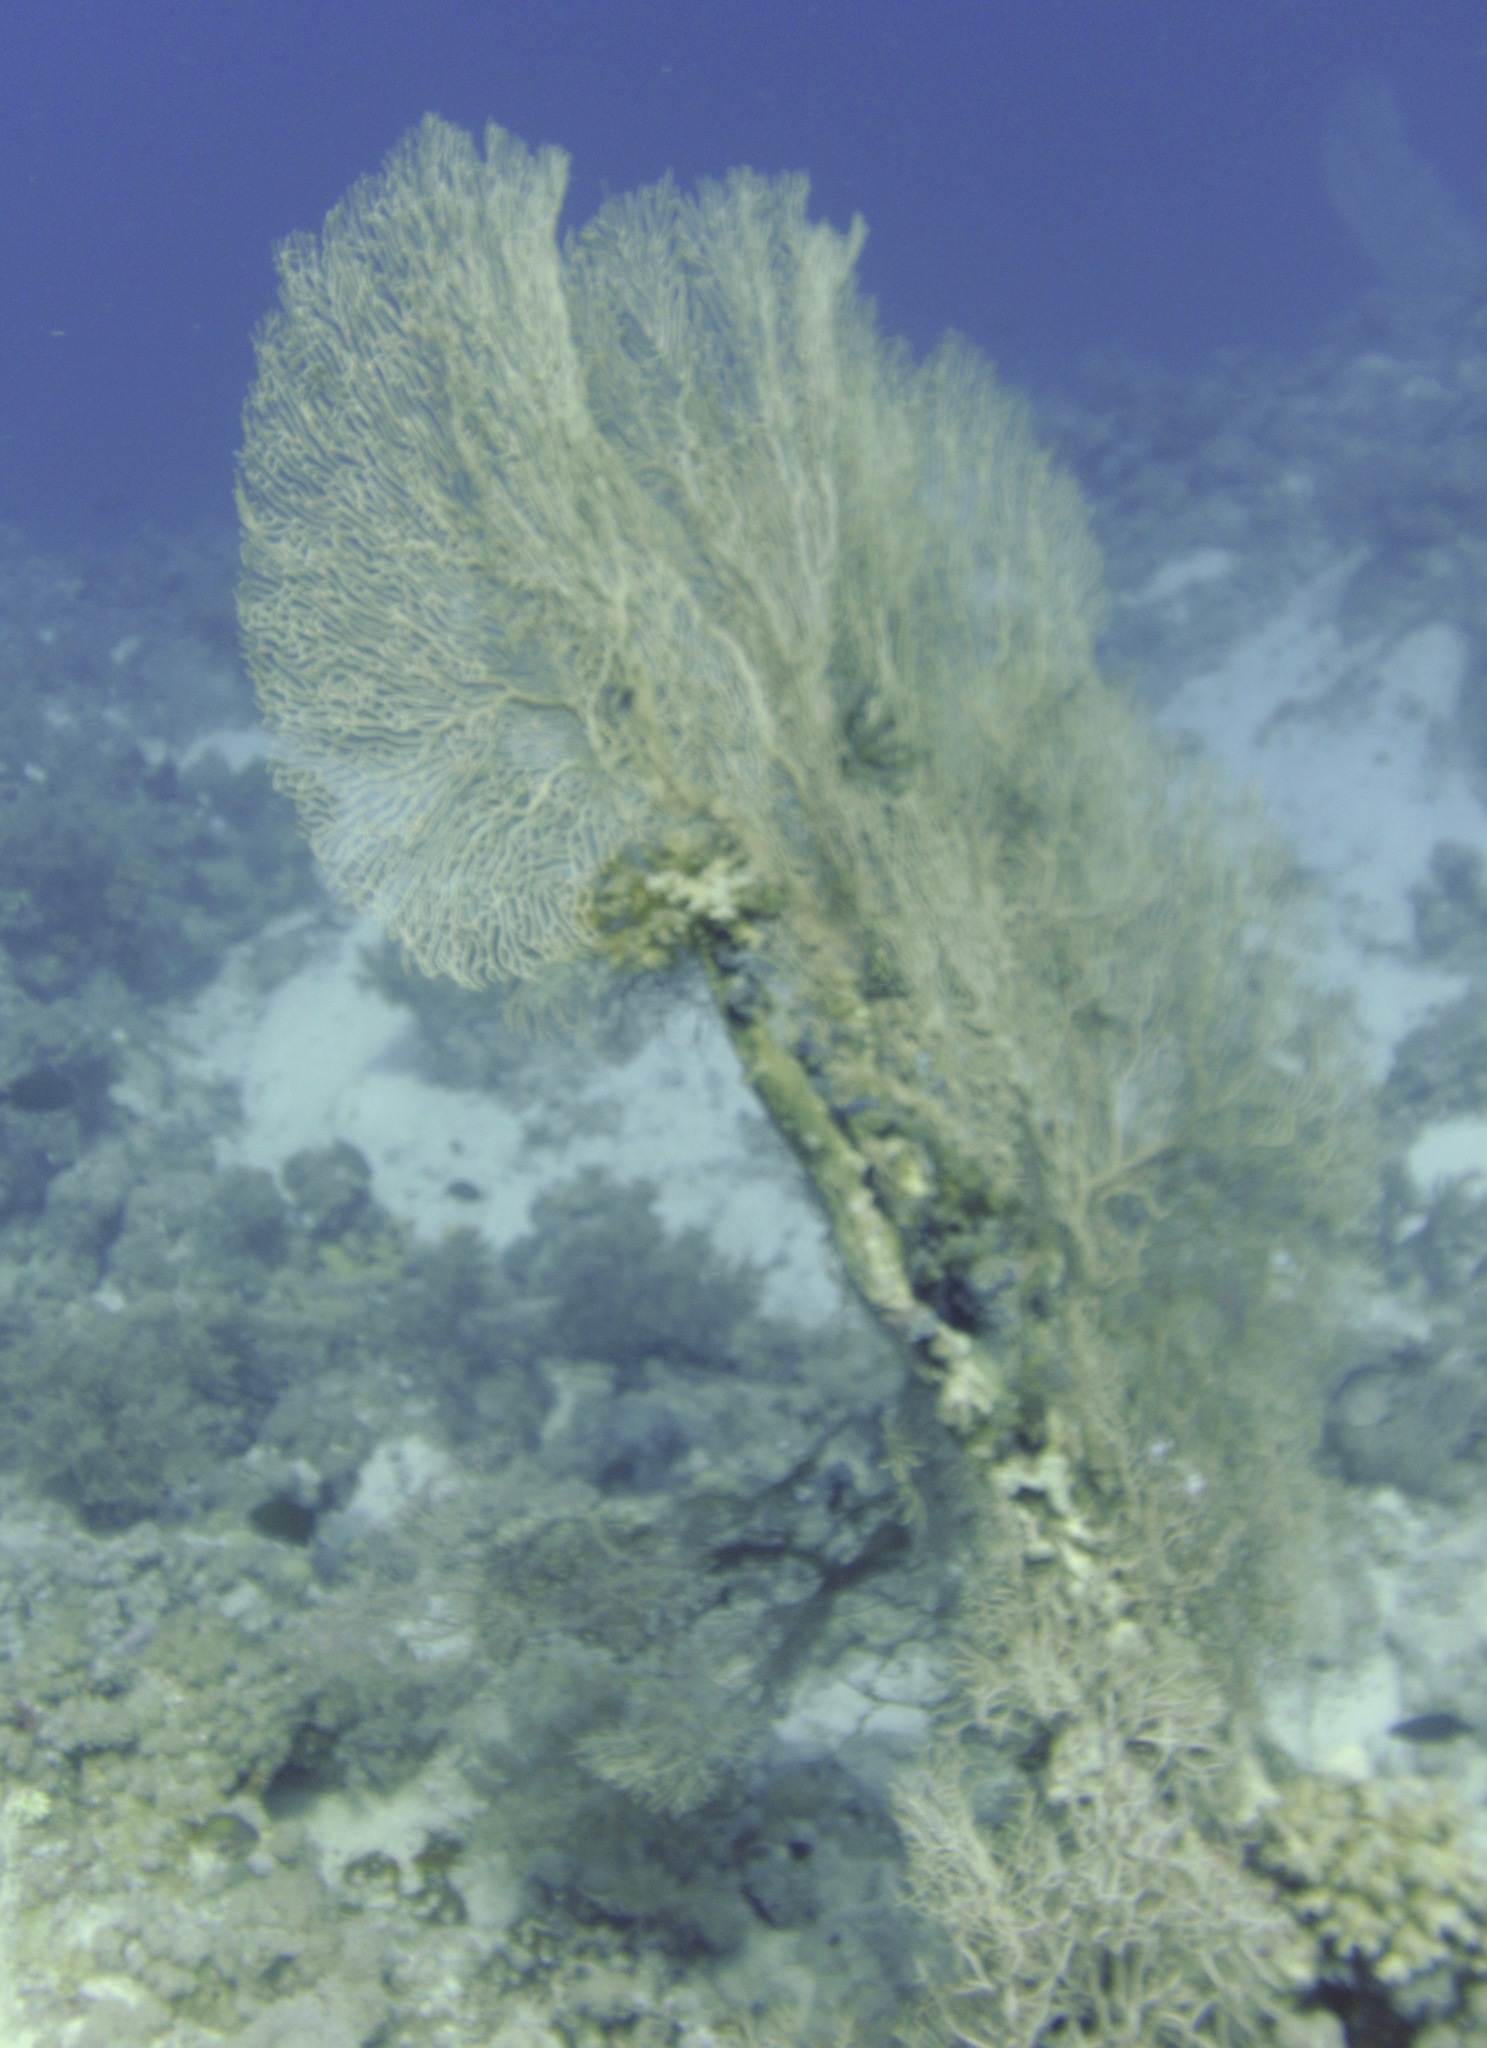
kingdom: Animalia
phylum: Cnidaria
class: Anthozoa
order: Malacalcyonacea
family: Subergorgiidae
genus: Annella
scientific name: Annella mollis
